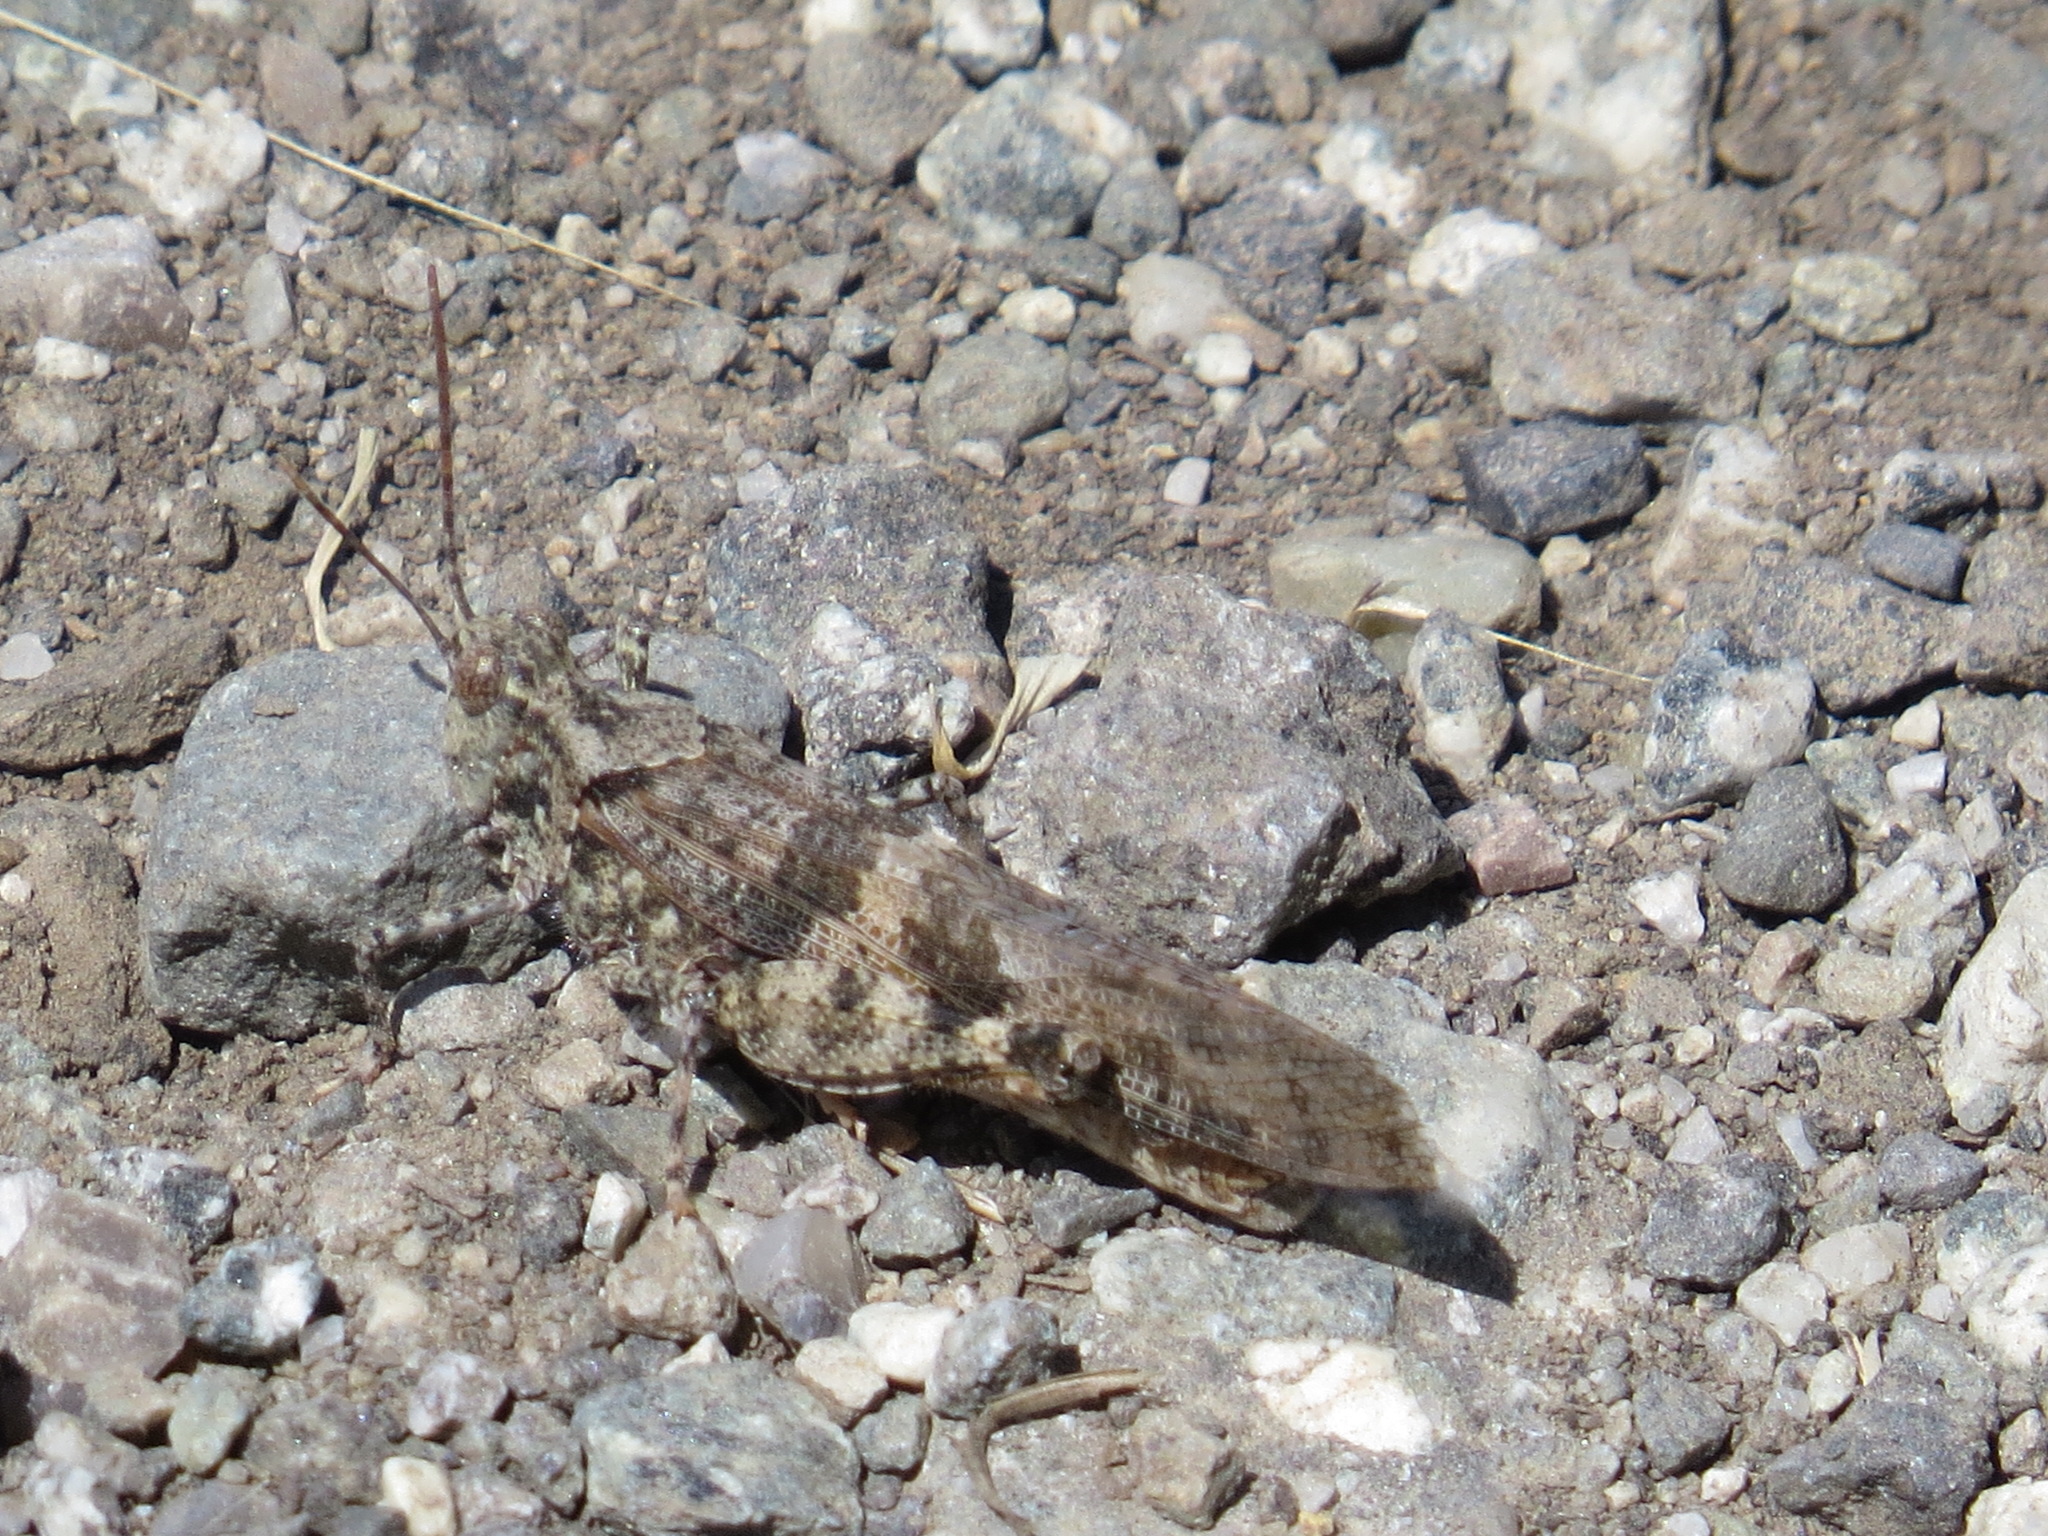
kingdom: Animalia
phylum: Arthropoda
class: Insecta
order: Orthoptera
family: Acrididae
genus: Trimerotropis
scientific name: Trimerotropis pallidipennis
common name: Pallid-winged grasshopper
